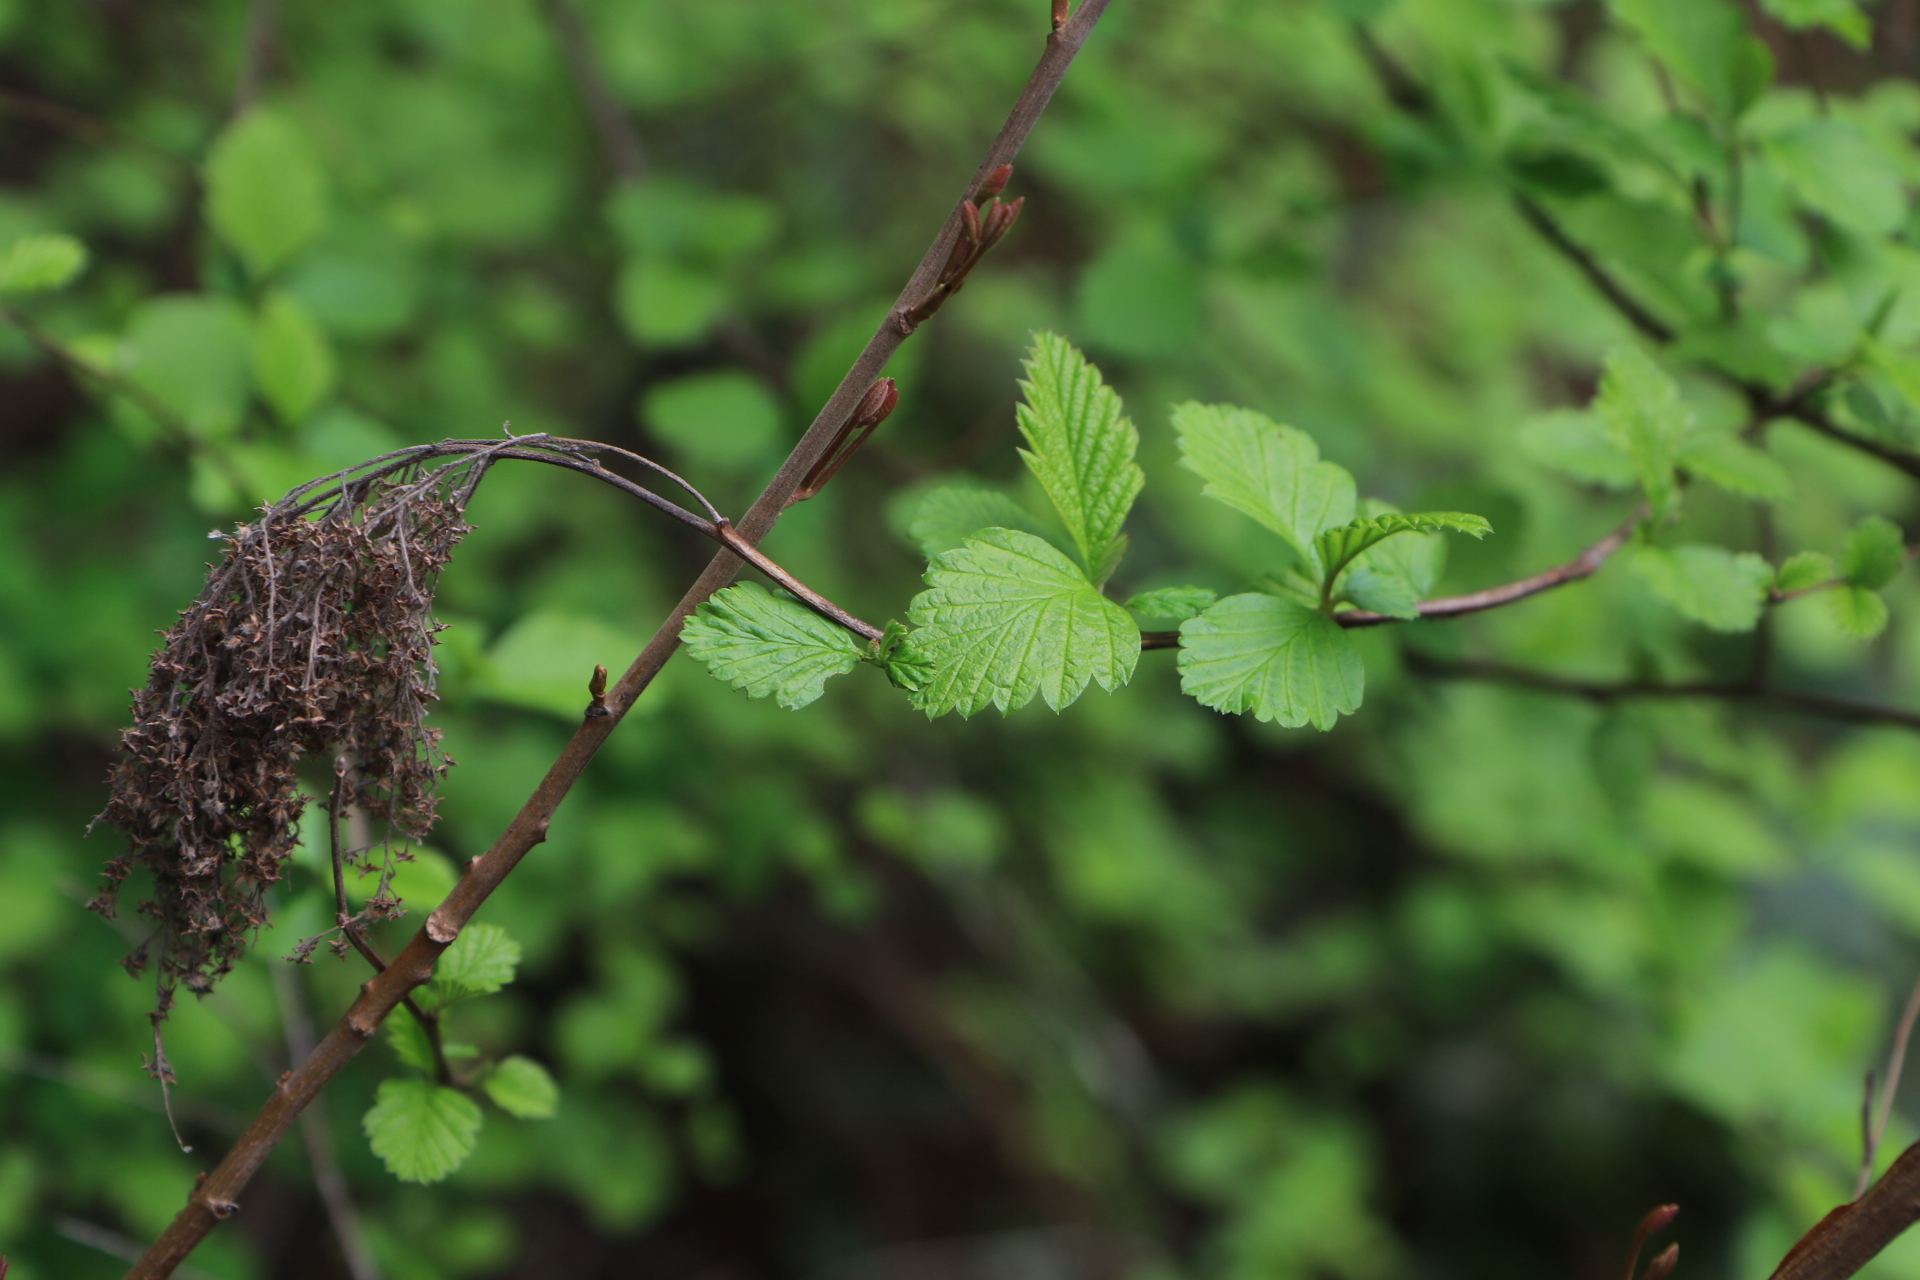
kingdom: Plantae
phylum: Tracheophyta
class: Magnoliopsida
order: Rosales
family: Rosaceae
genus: Holodiscus
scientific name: Holodiscus discolor
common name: Oceanspray
